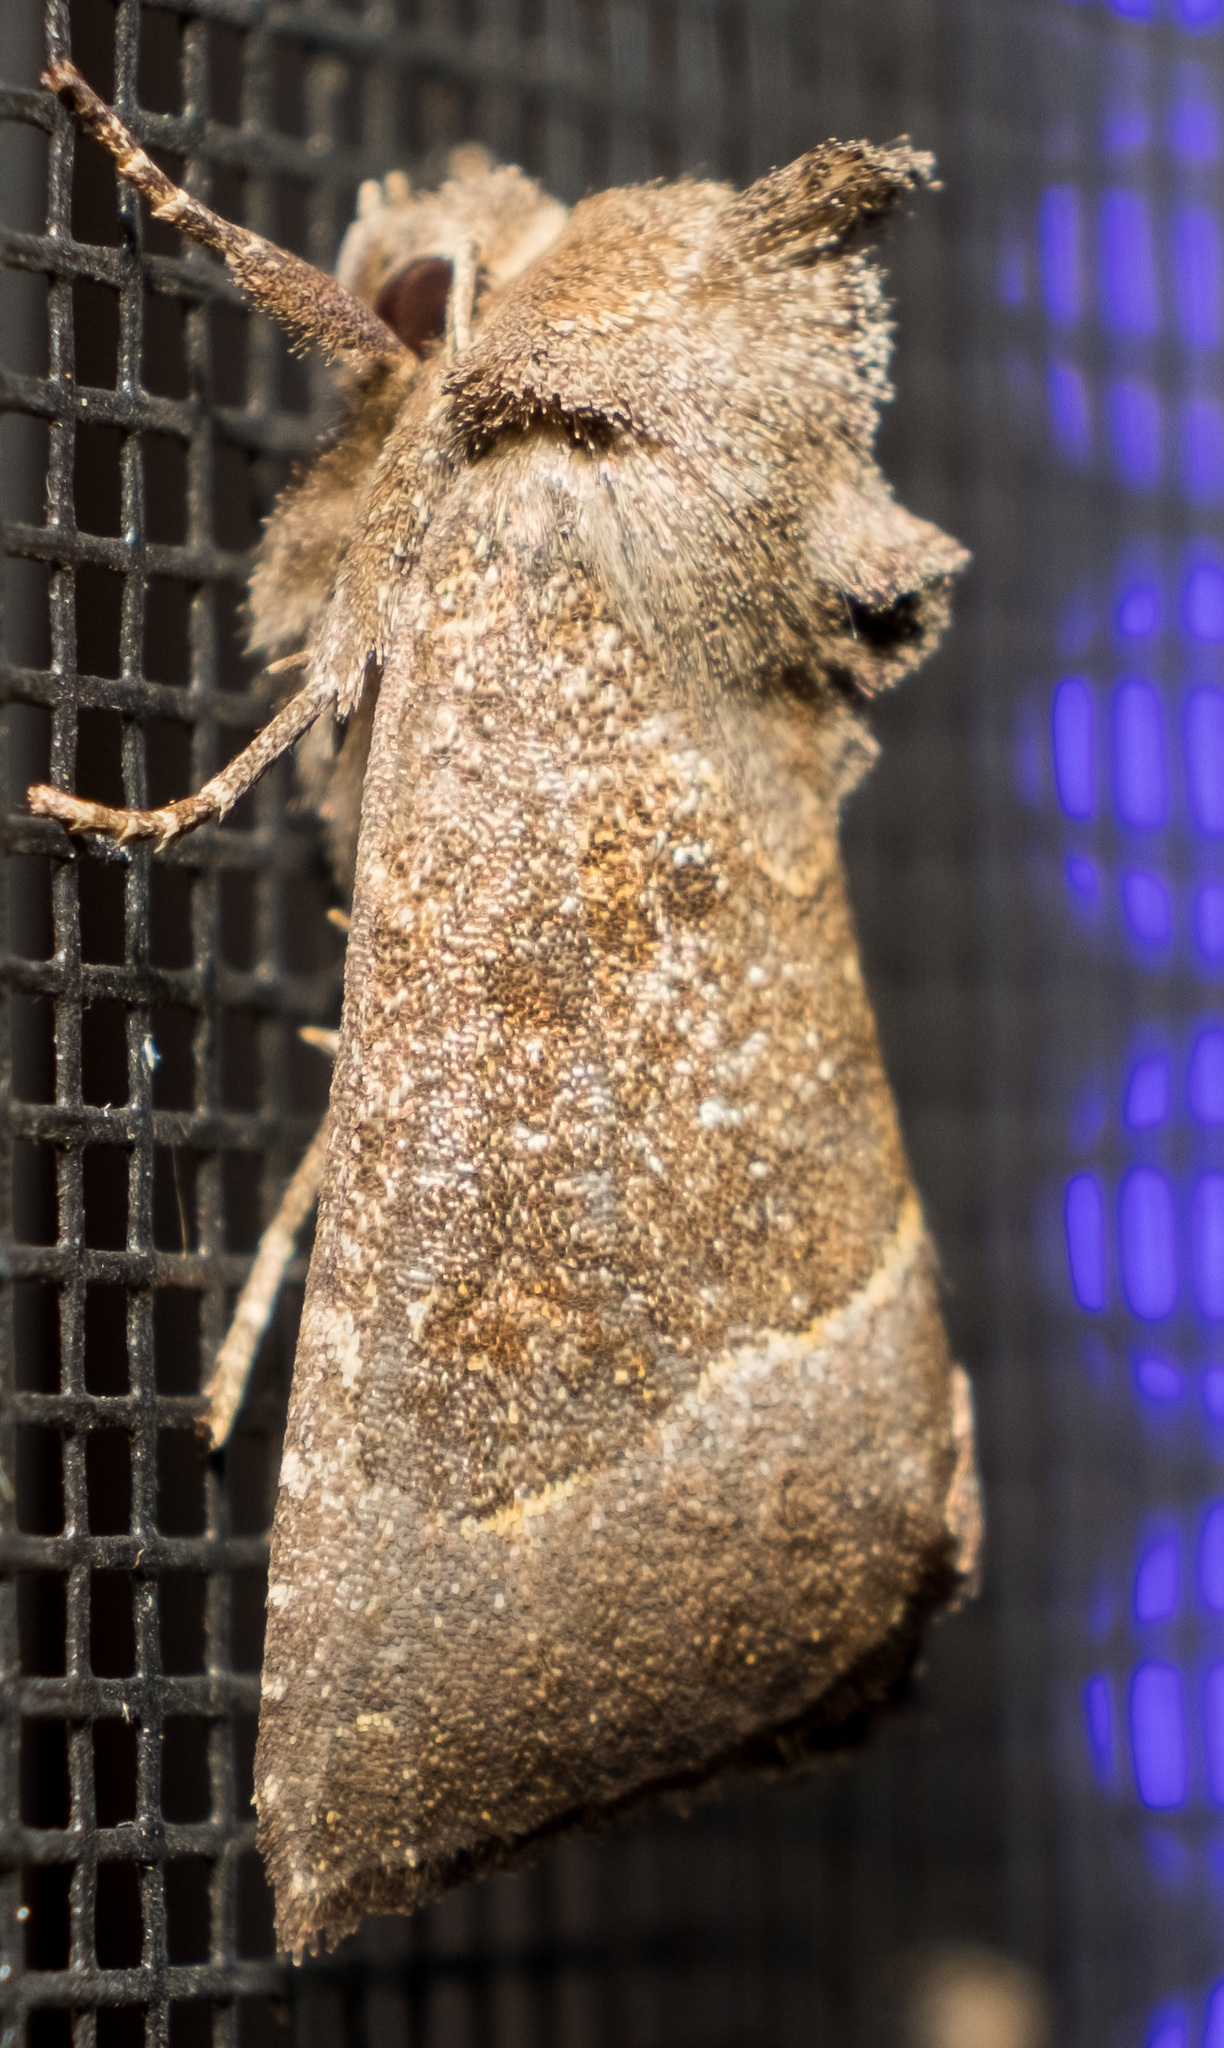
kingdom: Animalia
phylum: Arthropoda
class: Insecta
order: Lepidoptera
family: Noctuidae
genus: Papaipema
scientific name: Papaipema nebris
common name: Stalk borer
